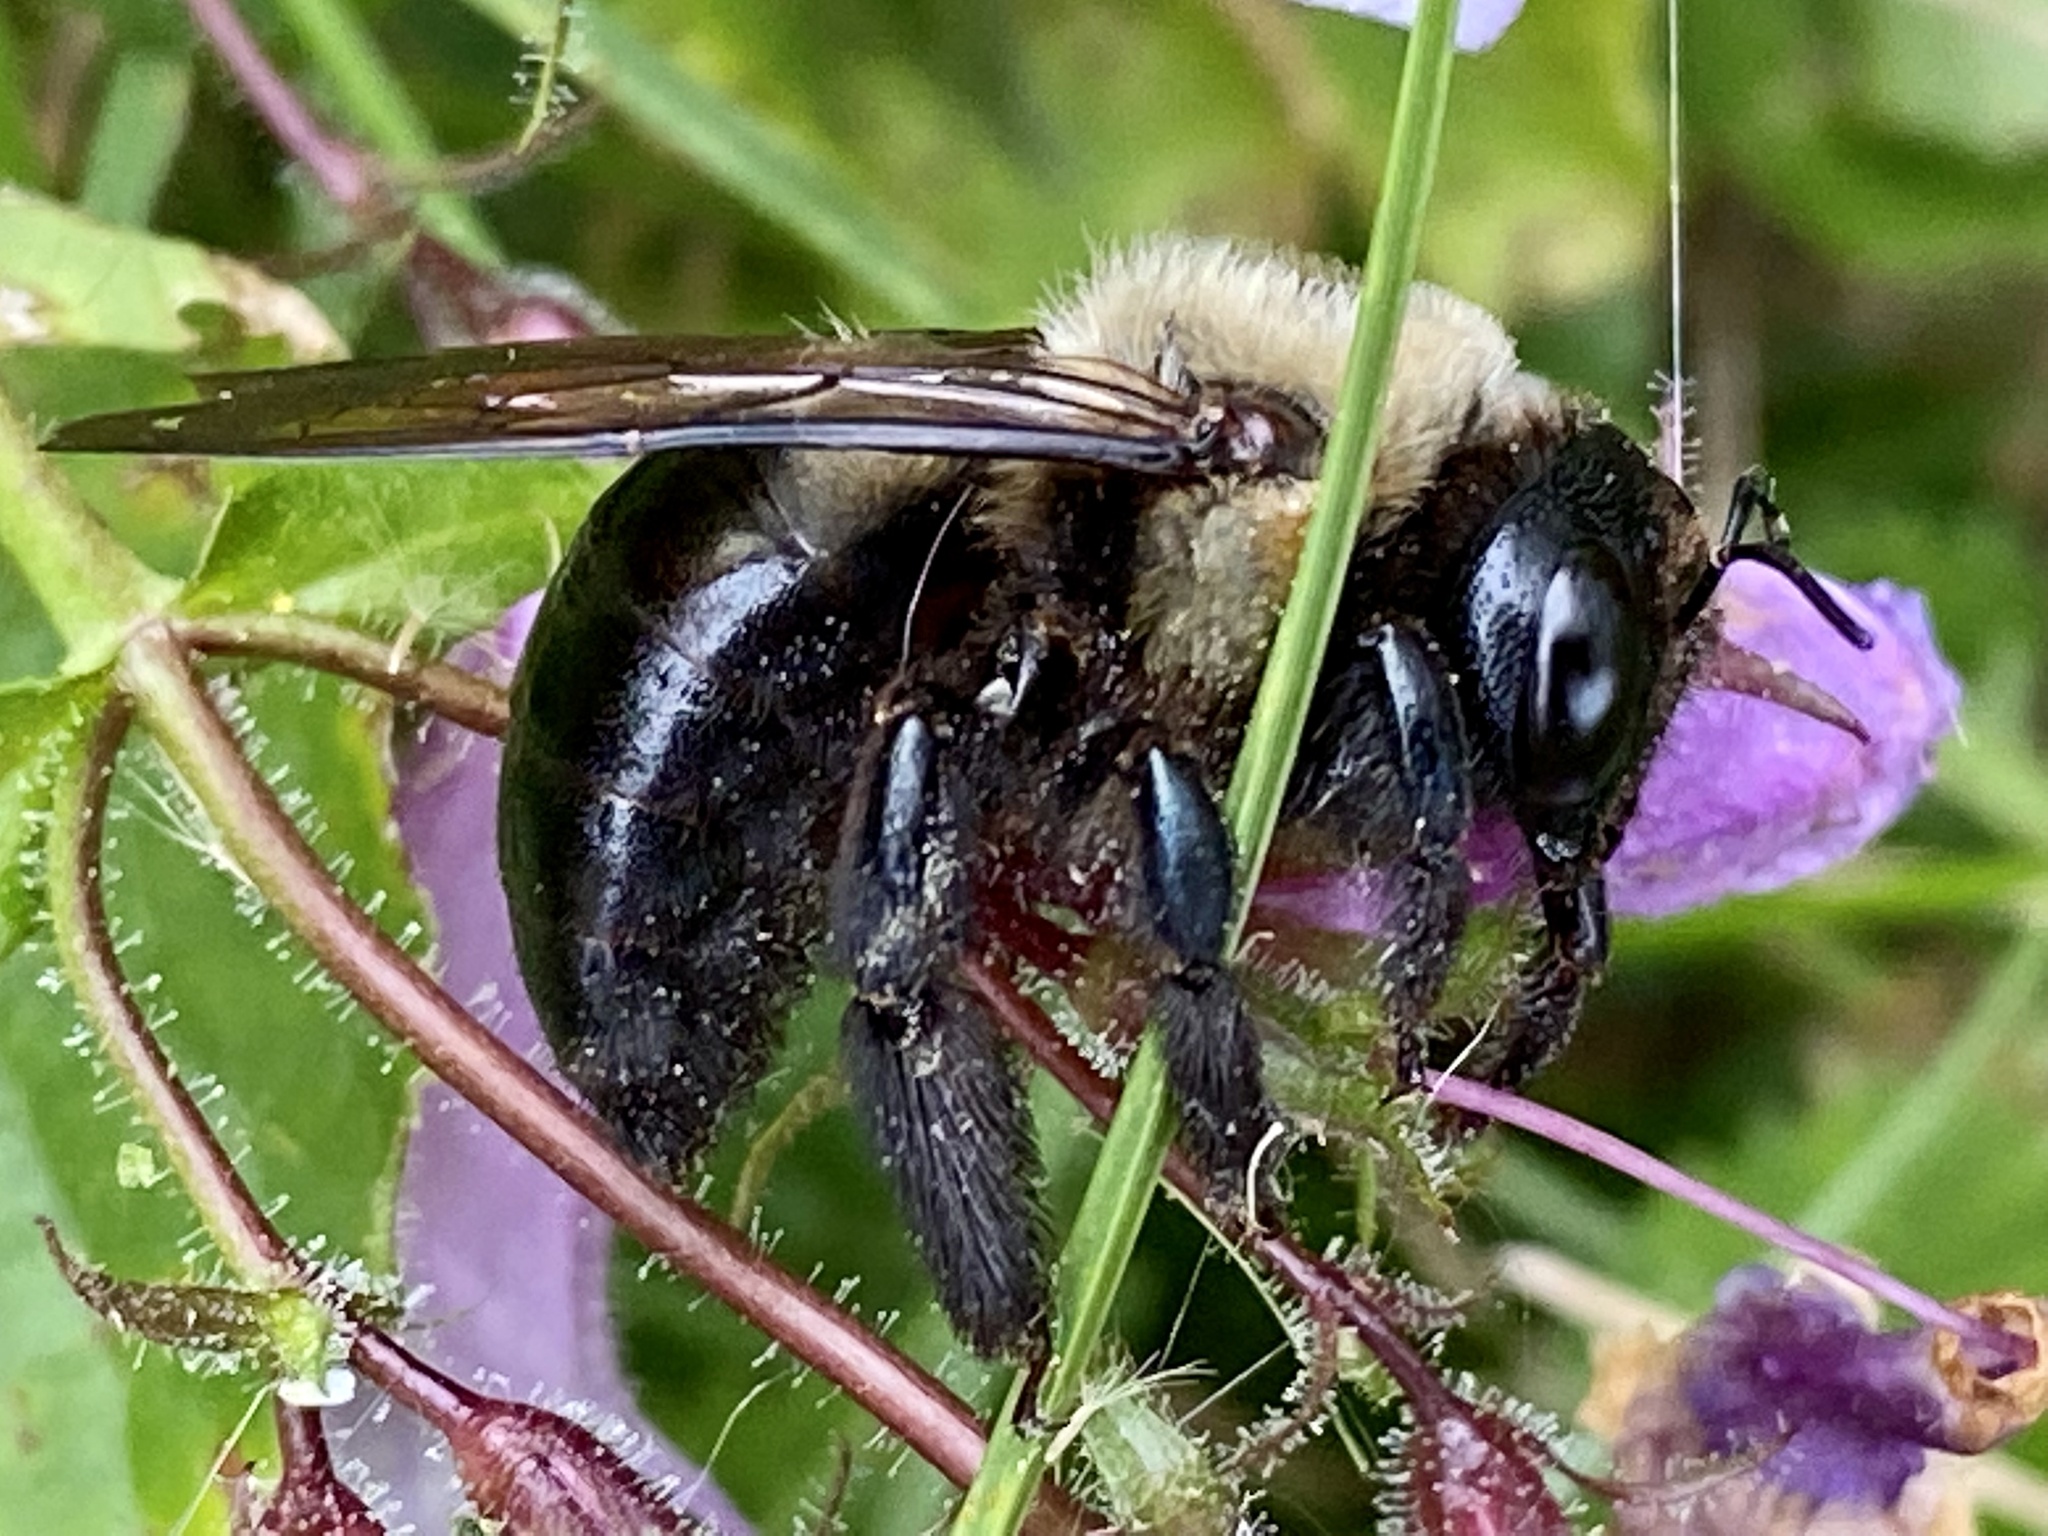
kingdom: Animalia
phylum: Arthropoda
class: Insecta
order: Hymenoptera
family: Apidae
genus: Xylocopa
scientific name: Xylocopa virginica
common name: Carpenter bee
